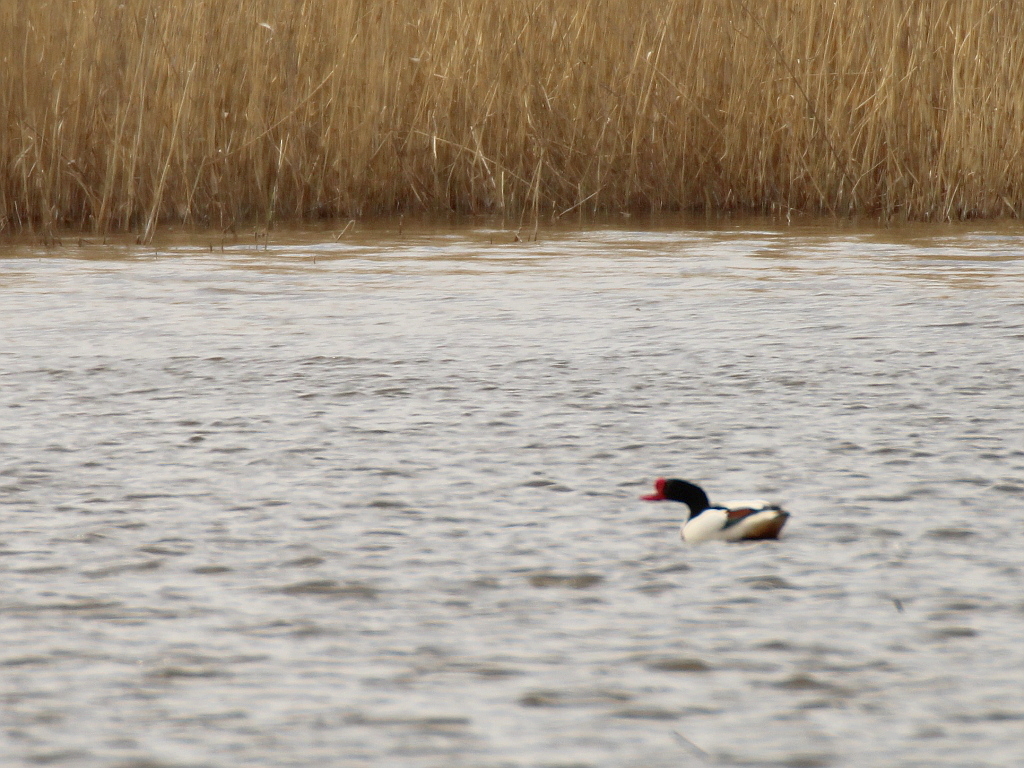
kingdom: Animalia
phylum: Chordata
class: Aves
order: Anseriformes
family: Anatidae
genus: Tadorna
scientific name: Tadorna tadorna
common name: Common shelduck
